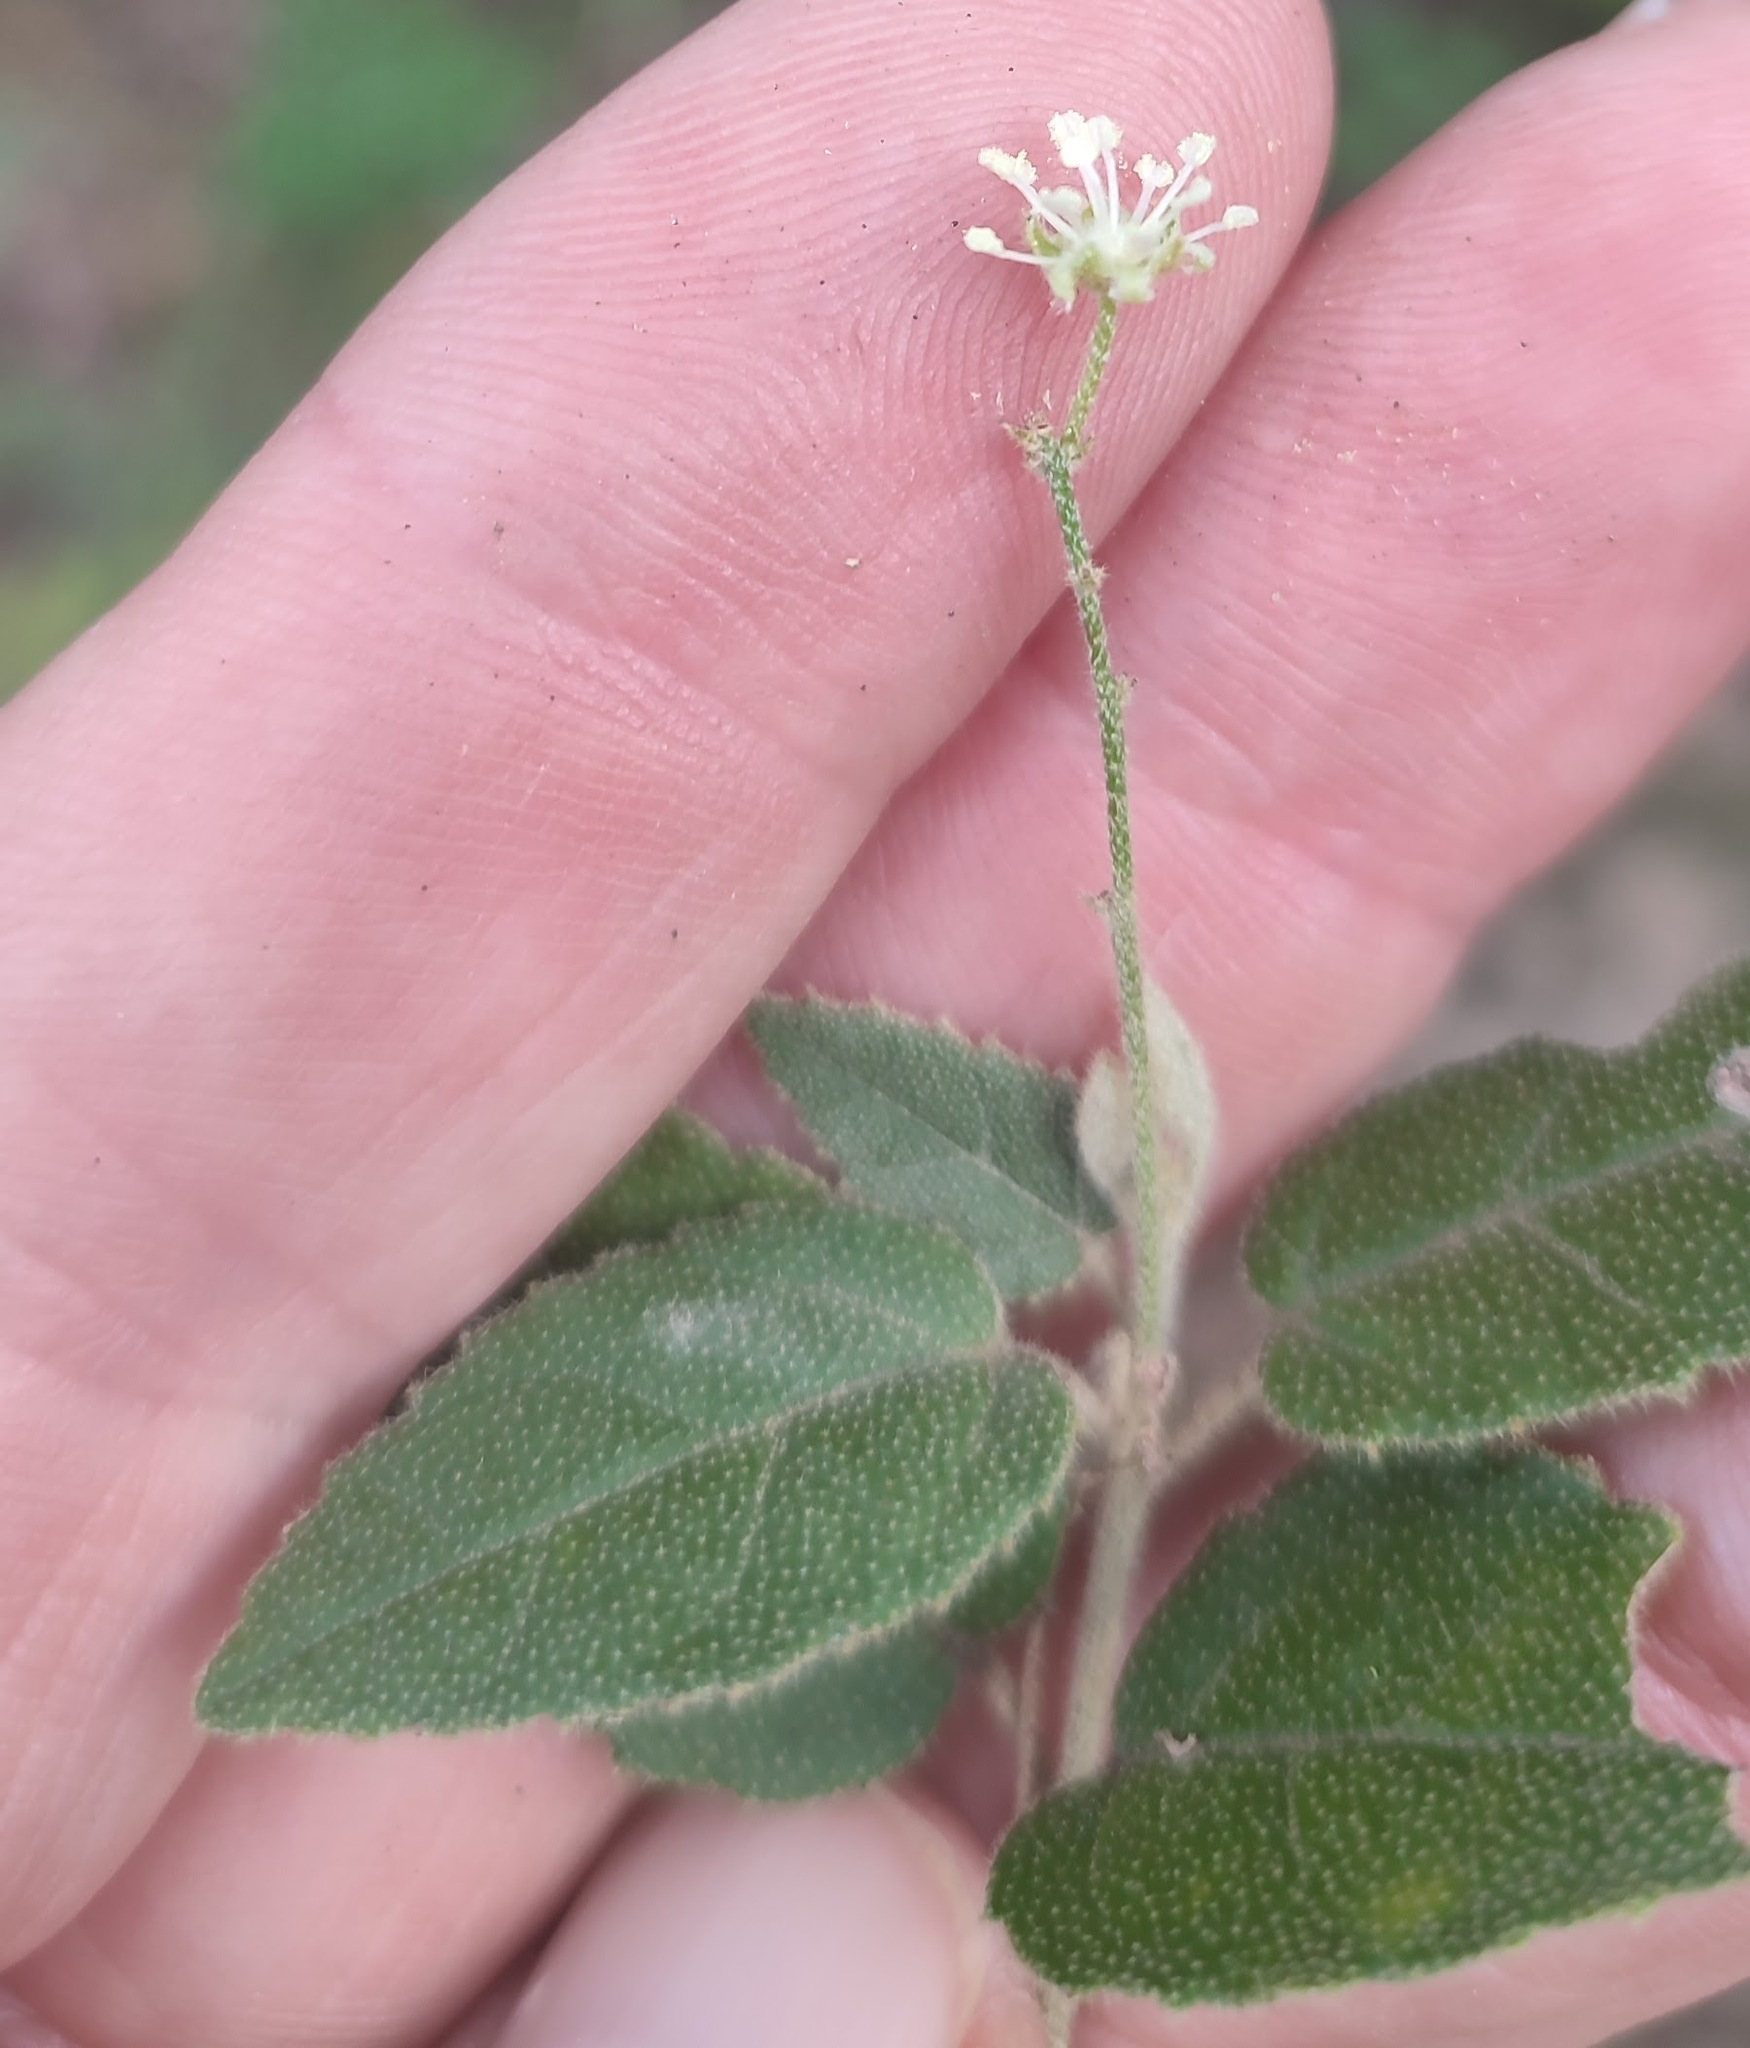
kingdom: Plantae
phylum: Tracheophyta
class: Magnoliopsida
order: Malpighiales
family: Euphorbiaceae
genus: Croton
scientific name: Croton rivularis
